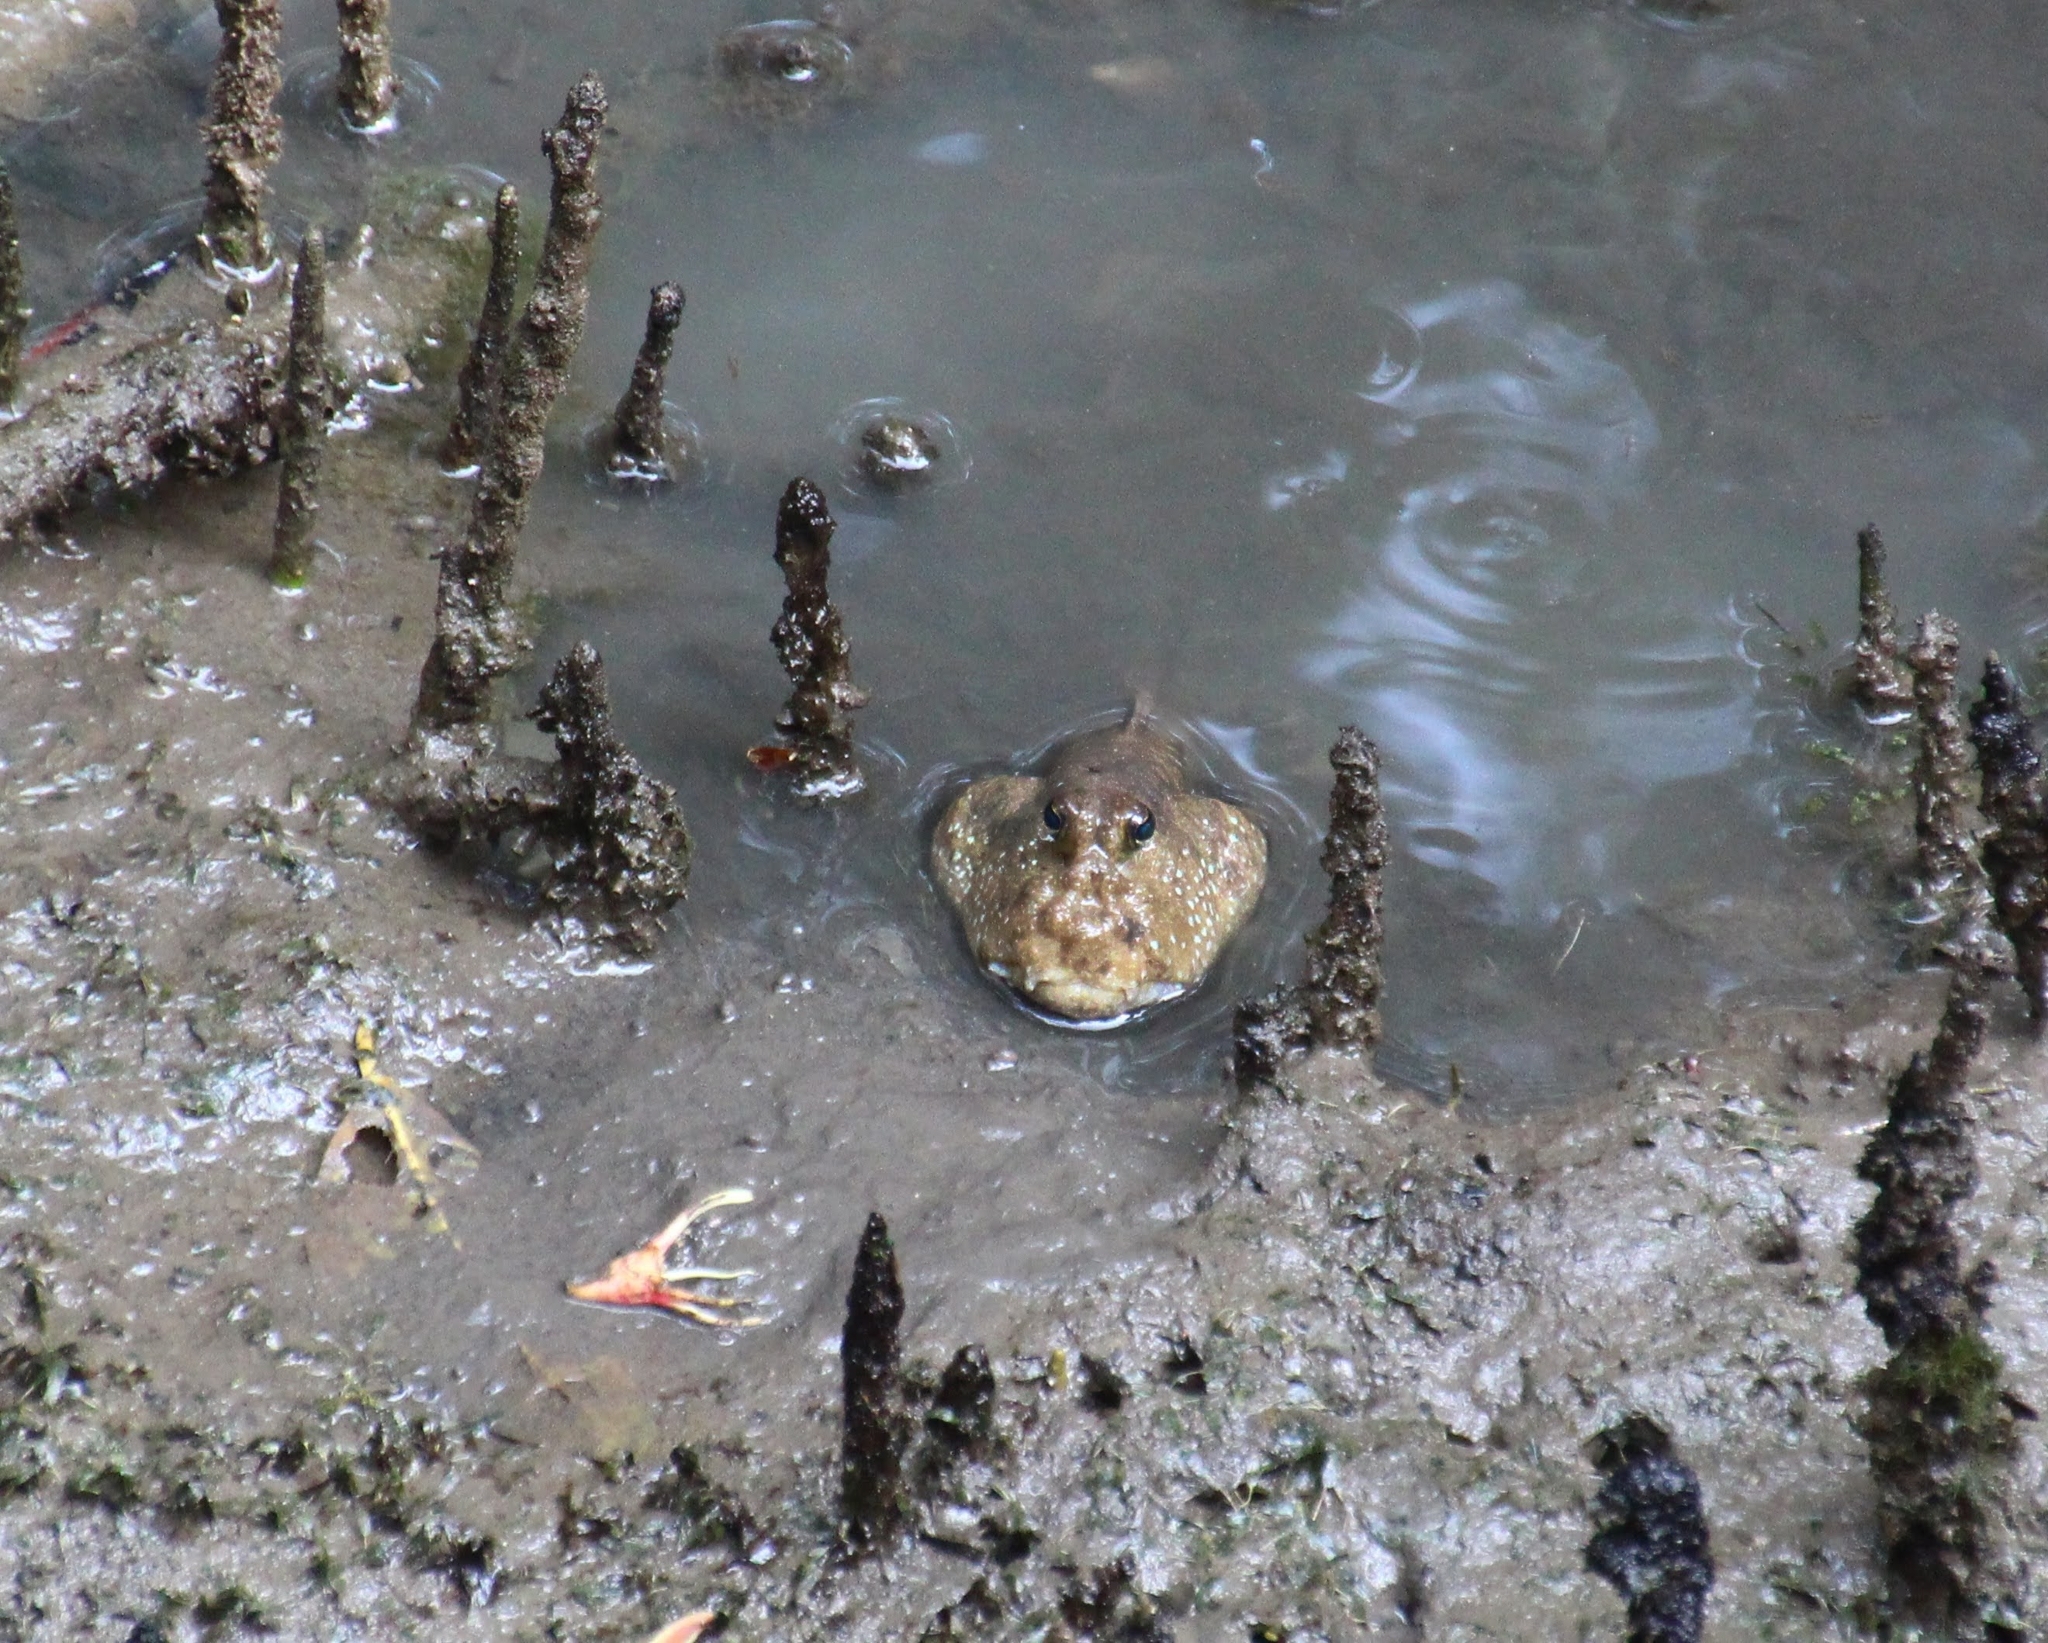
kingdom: Animalia
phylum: Chordata
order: Perciformes
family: Gobiidae
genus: Periophthalmodon
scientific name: Periophthalmodon schlosseri
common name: Giant mudskipper
